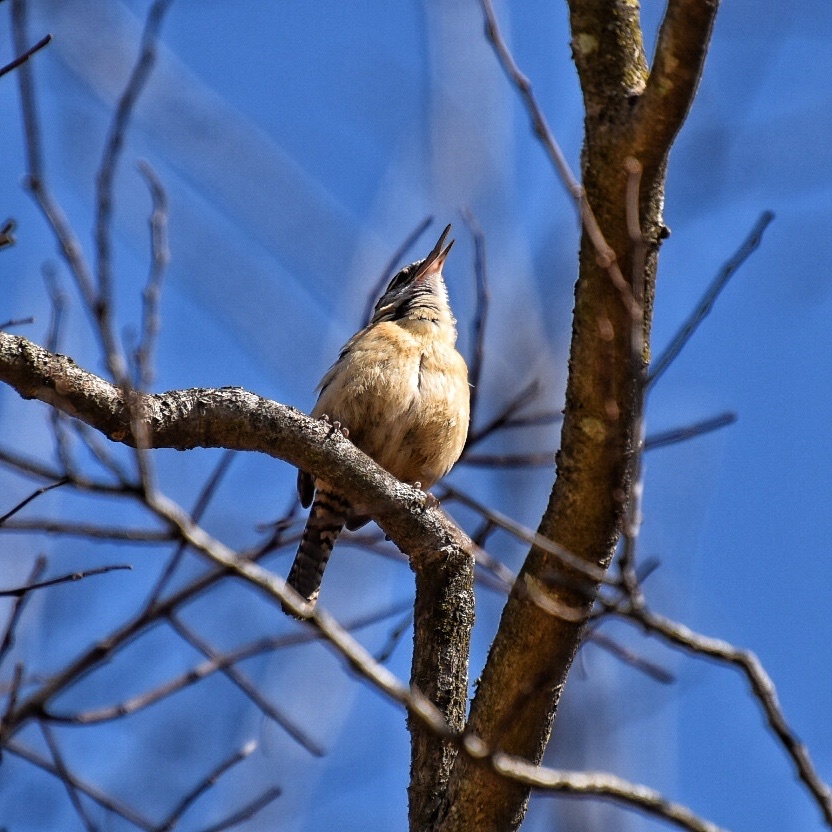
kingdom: Animalia
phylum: Chordata
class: Aves
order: Passeriformes
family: Troglodytidae
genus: Thryothorus
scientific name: Thryothorus ludovicianus
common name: Carolina wren
